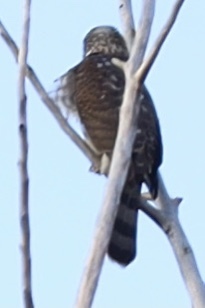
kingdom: Animalia
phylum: Chordata
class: Aves
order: Accipitriformes
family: Accipitridae
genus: Accipiter
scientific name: Accipiter cooperii
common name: Cooper's hawk
